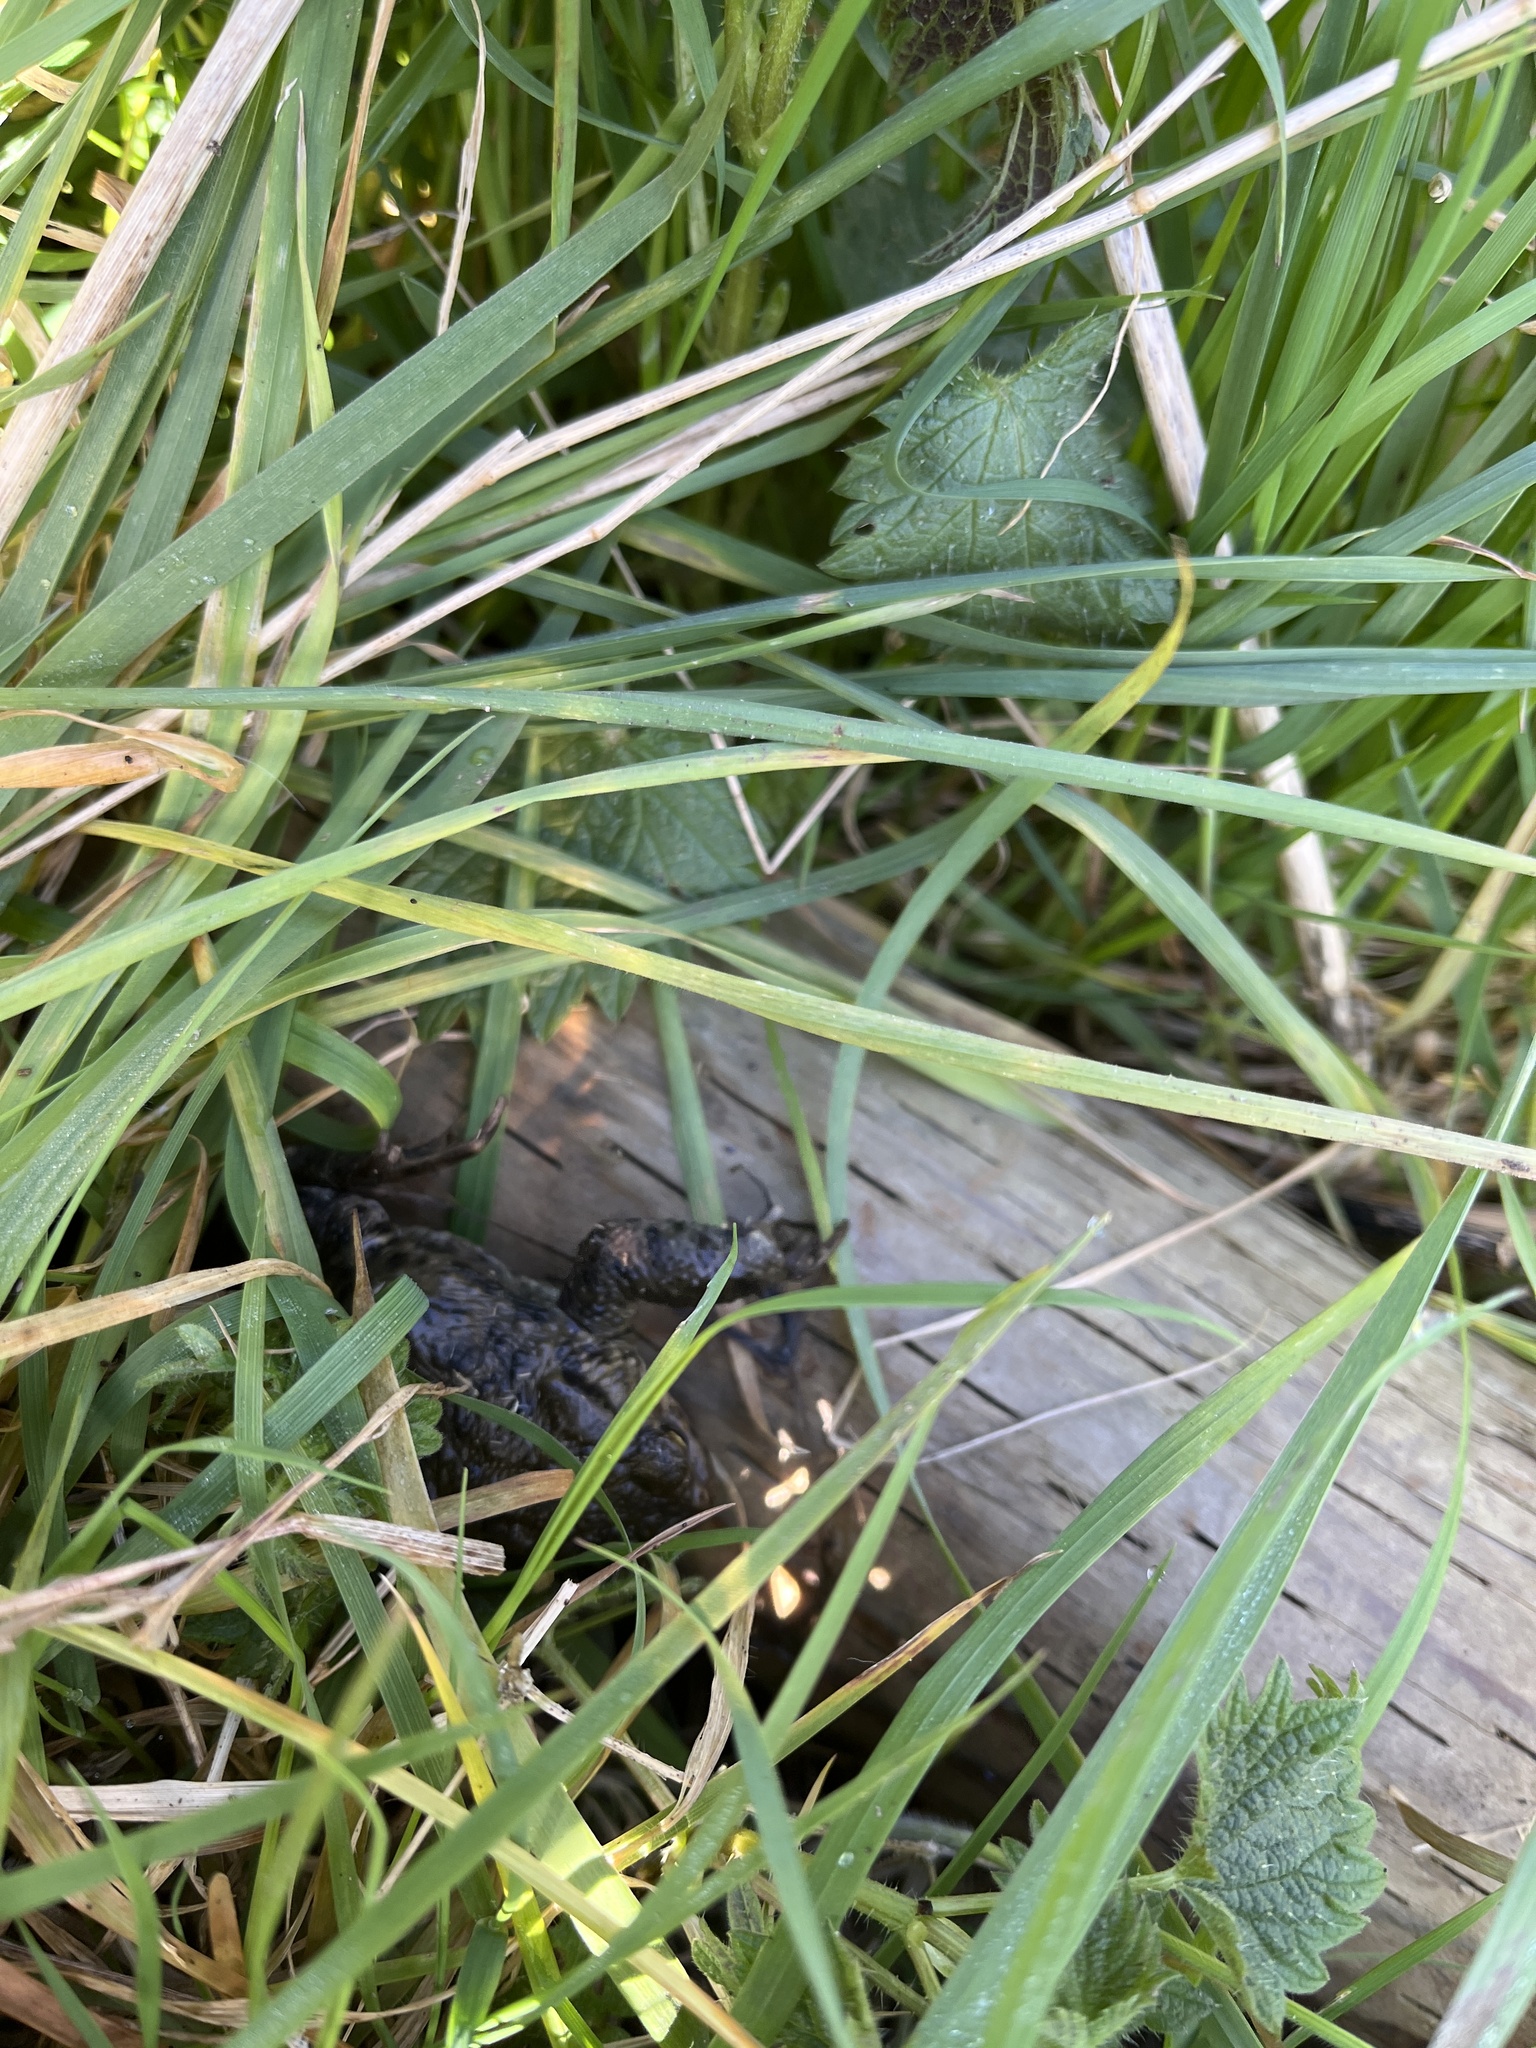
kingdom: Animalia
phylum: Chordata
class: Amphibia
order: Anura
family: Bufonidae
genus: Bufo
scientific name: Bufo bufo
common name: Common toad
